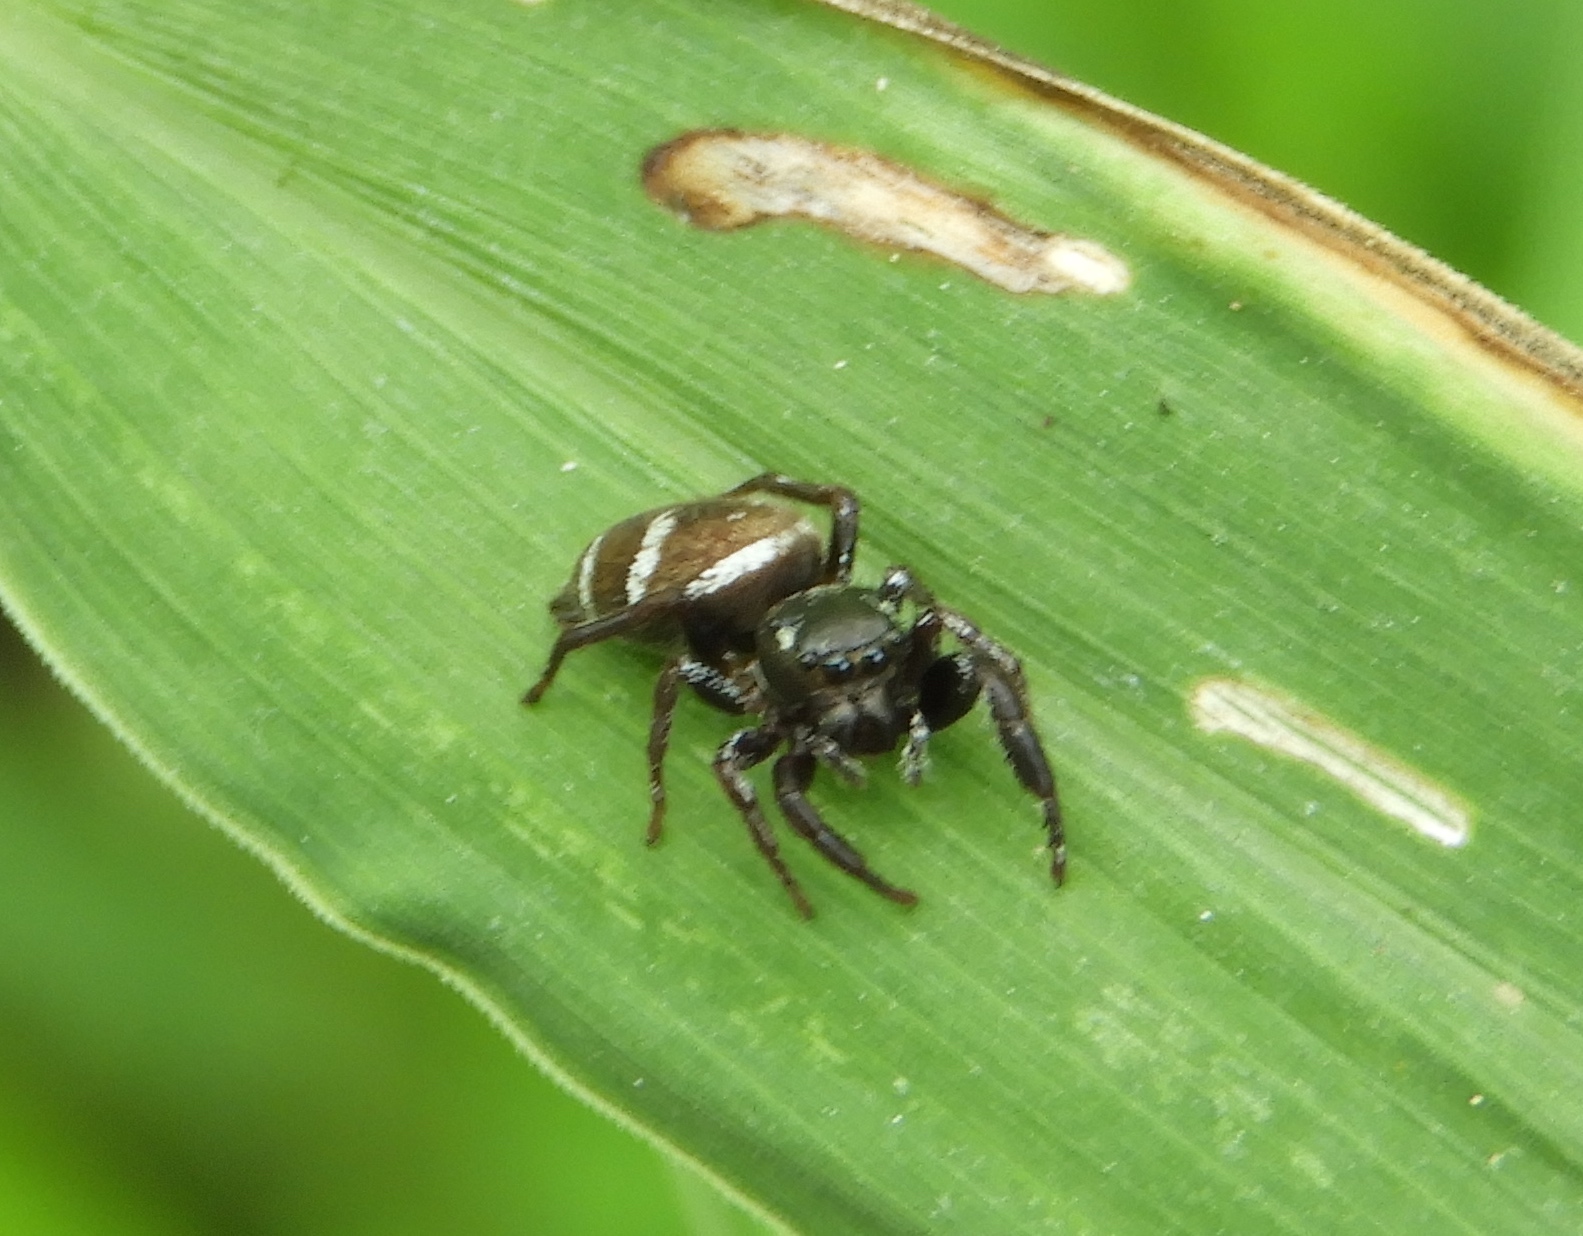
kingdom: Animalia
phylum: Arthropoda
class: Arachnida
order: Araneae
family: Salticidae
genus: Sassacus
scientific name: Sassacus
